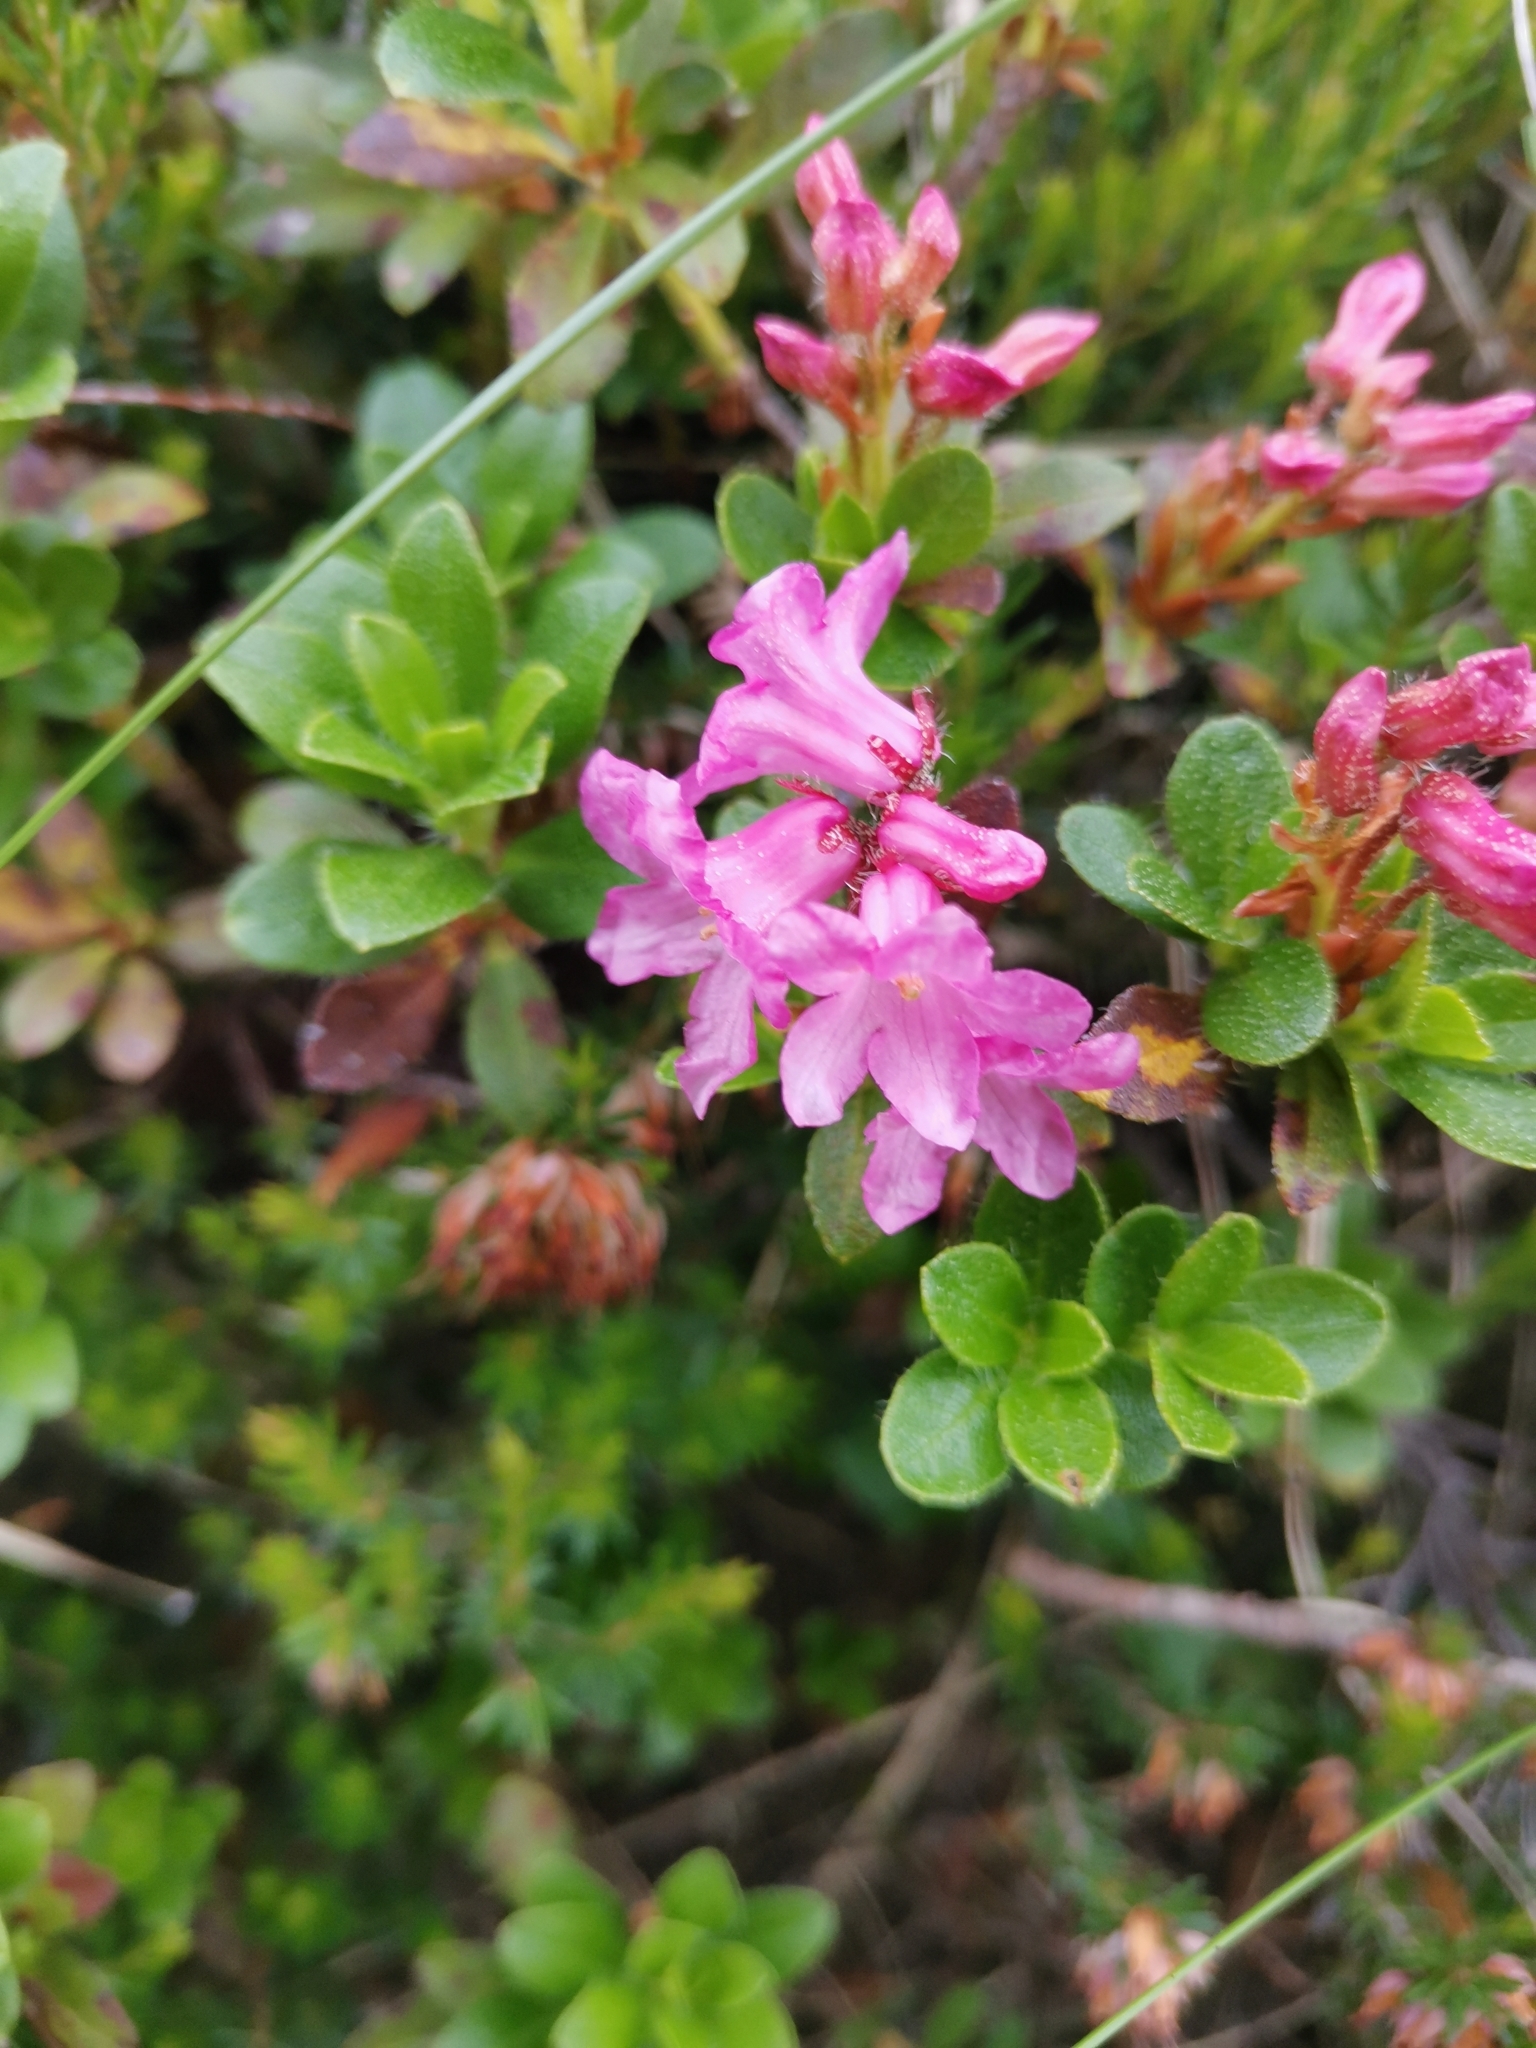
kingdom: Plantae
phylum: Tracheophyta
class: Magnoliopsida
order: Ericales
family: Ericaceae
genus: Rhododendron
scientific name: Rhododendron hirsutum
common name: Hairy alpenrose
